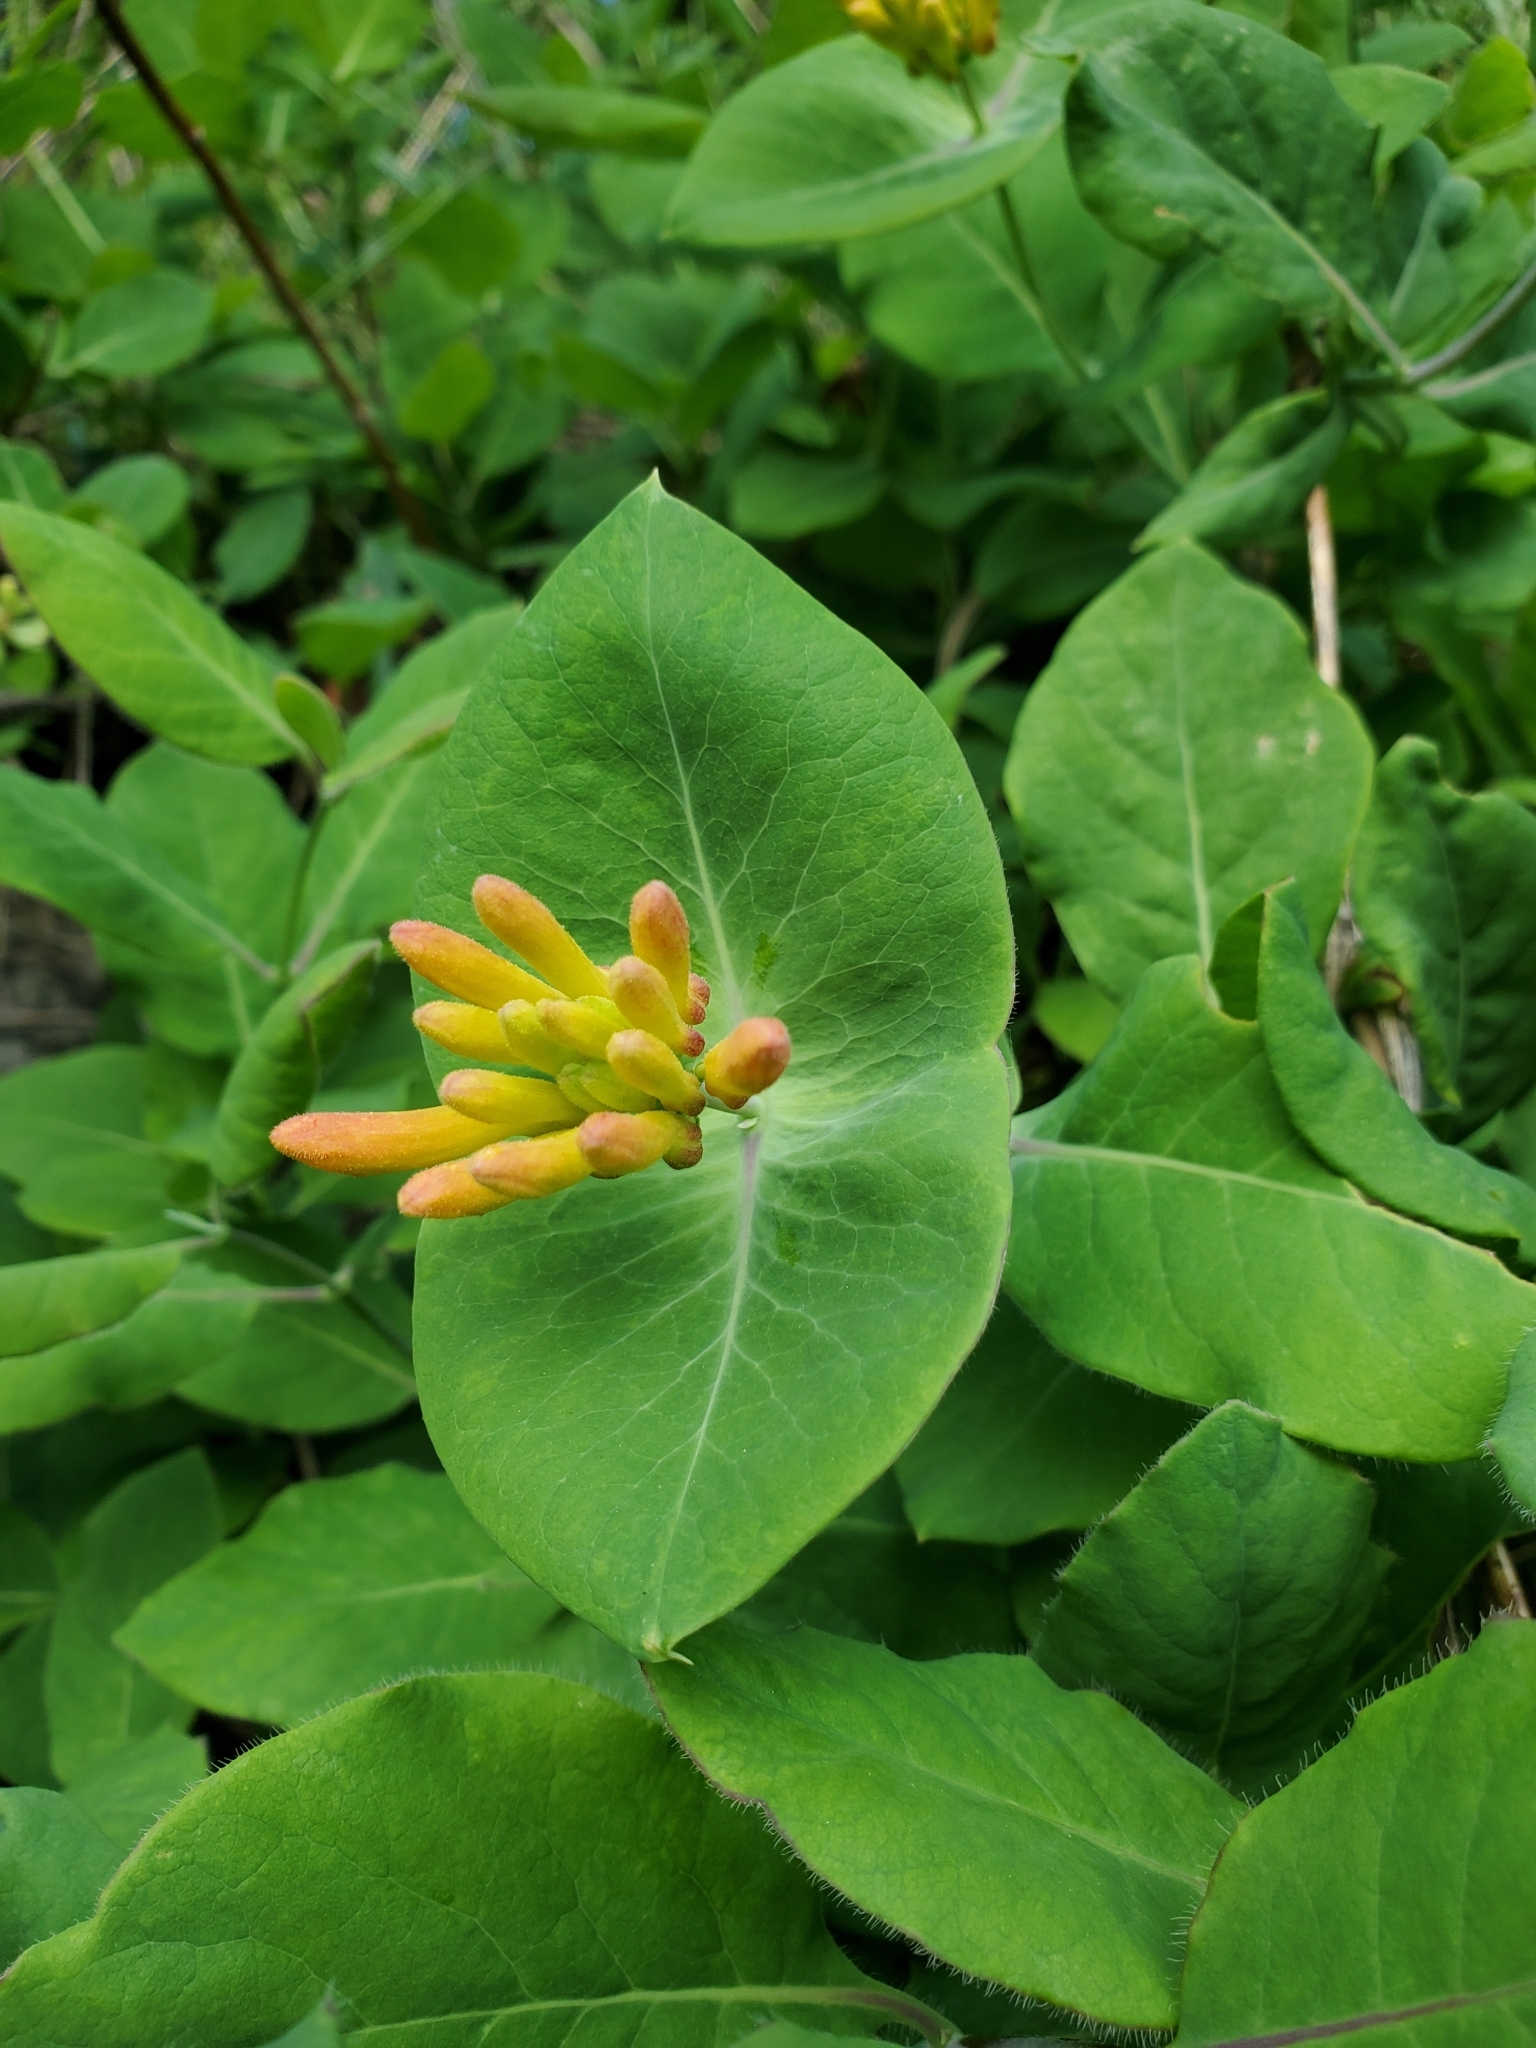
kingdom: Plantae
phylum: Tracheophyta
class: Magnoliopsida
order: Dipsacales
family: Caprifoliaceae
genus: Lonicera
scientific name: Lonicera ciliosa
